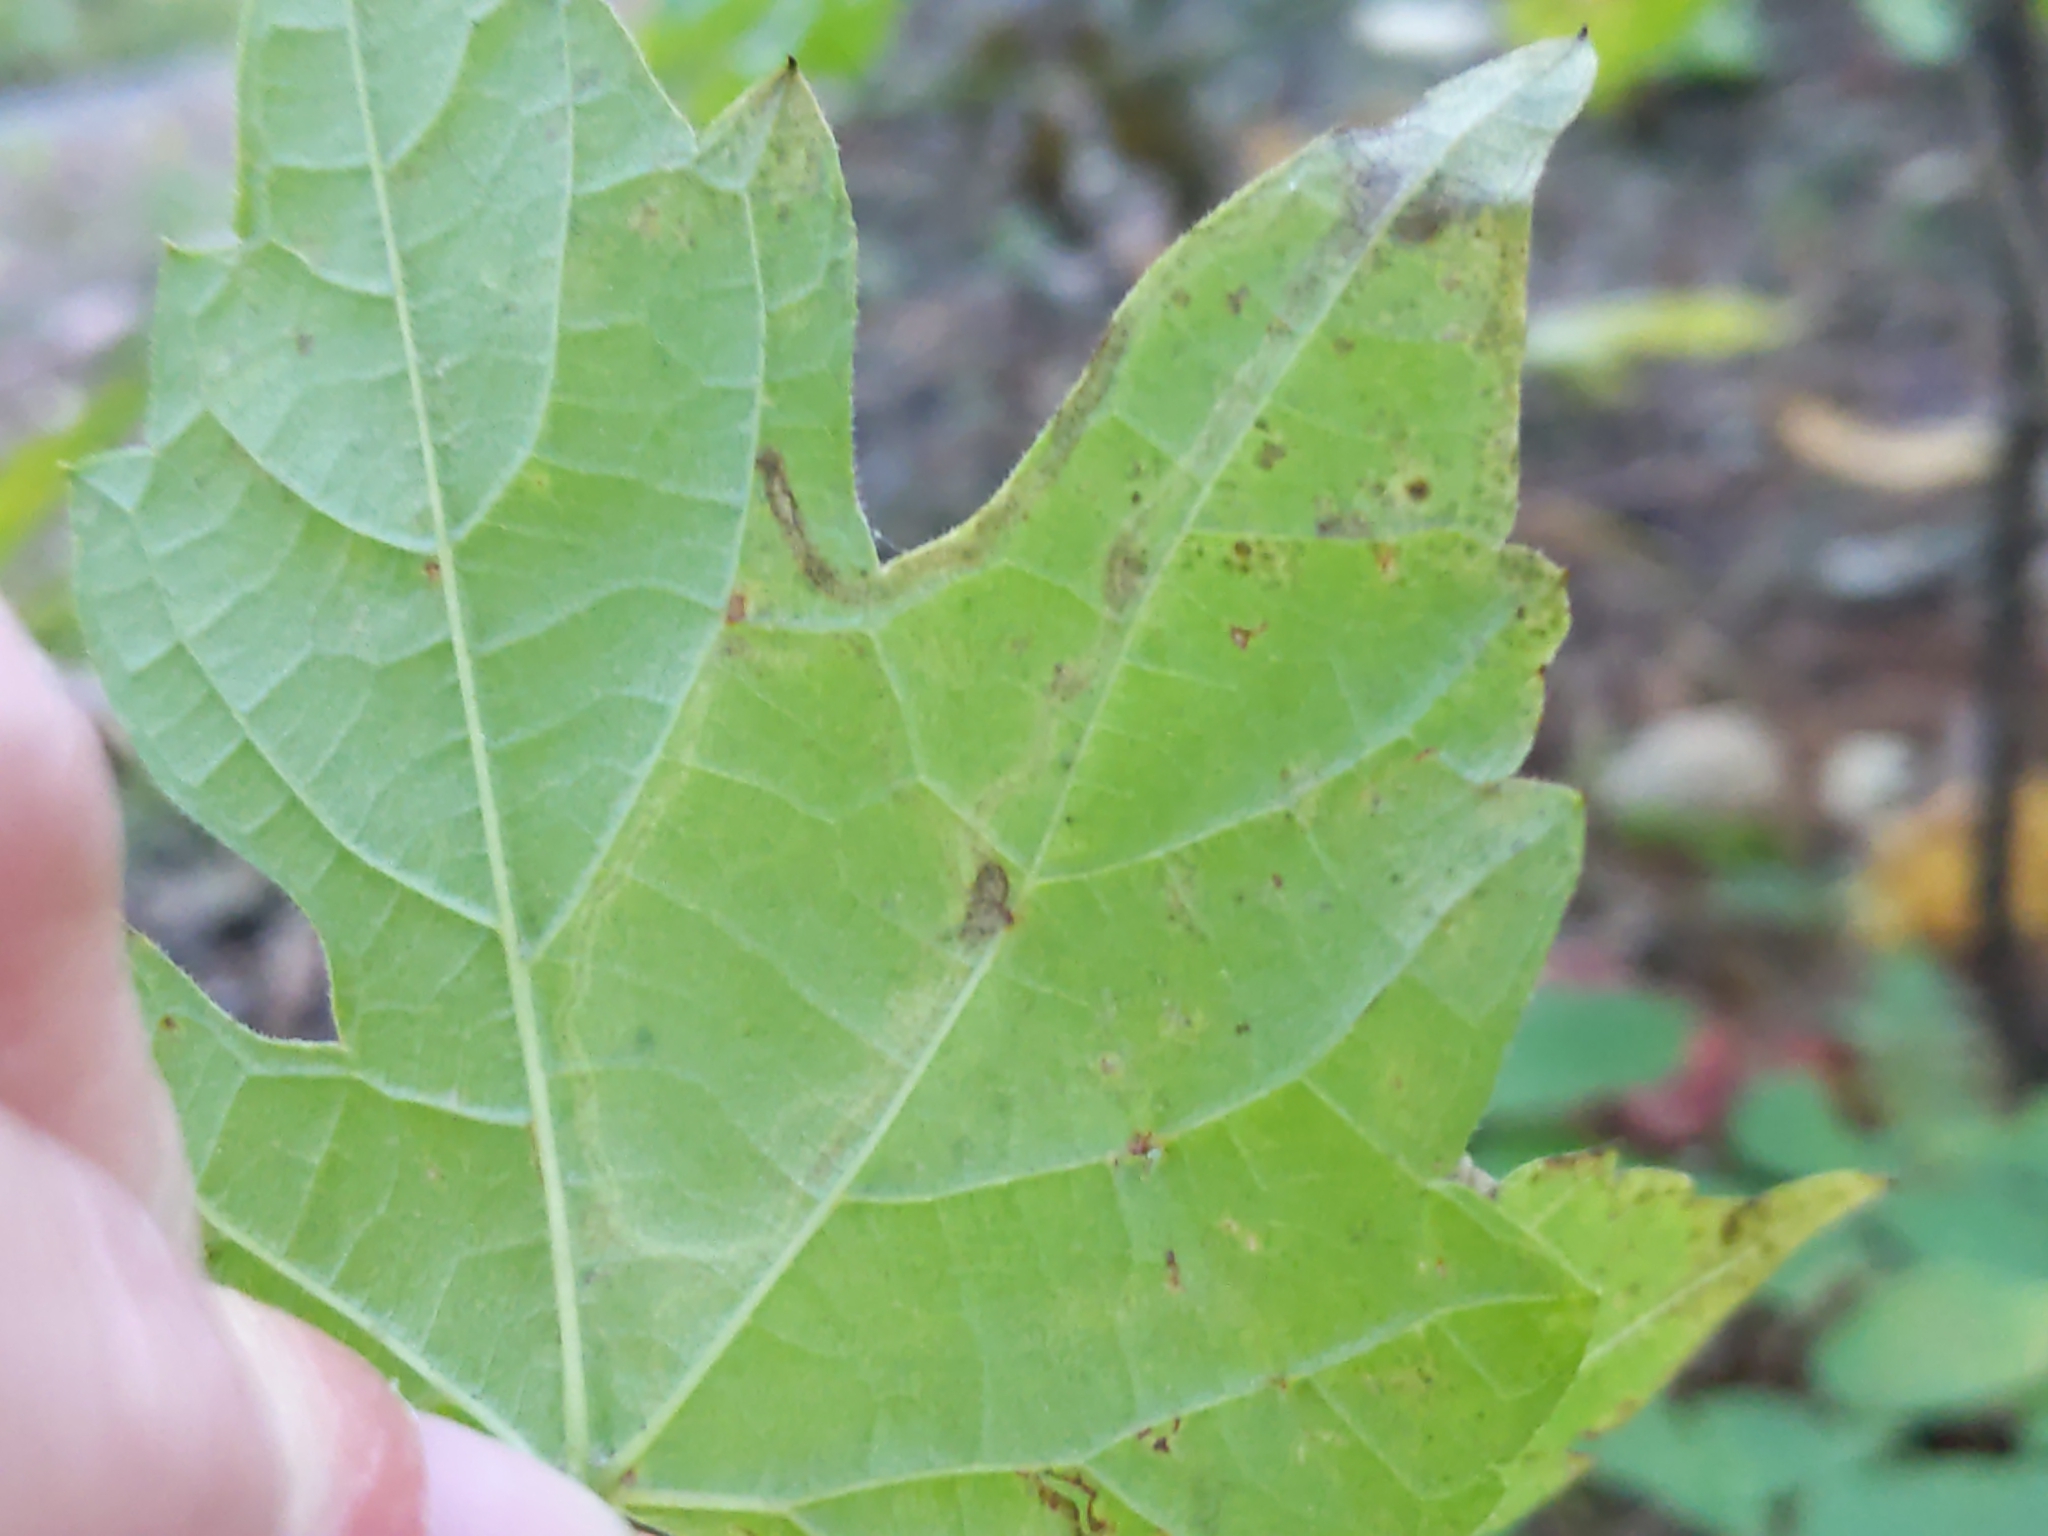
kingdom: Animalia
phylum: Arthropoda
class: Insecta
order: Lepidoptera
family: Gracillariidae
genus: Phyllocnistis
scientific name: Phyllocnistis vitifoliella
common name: Grape leaf-miner moth
